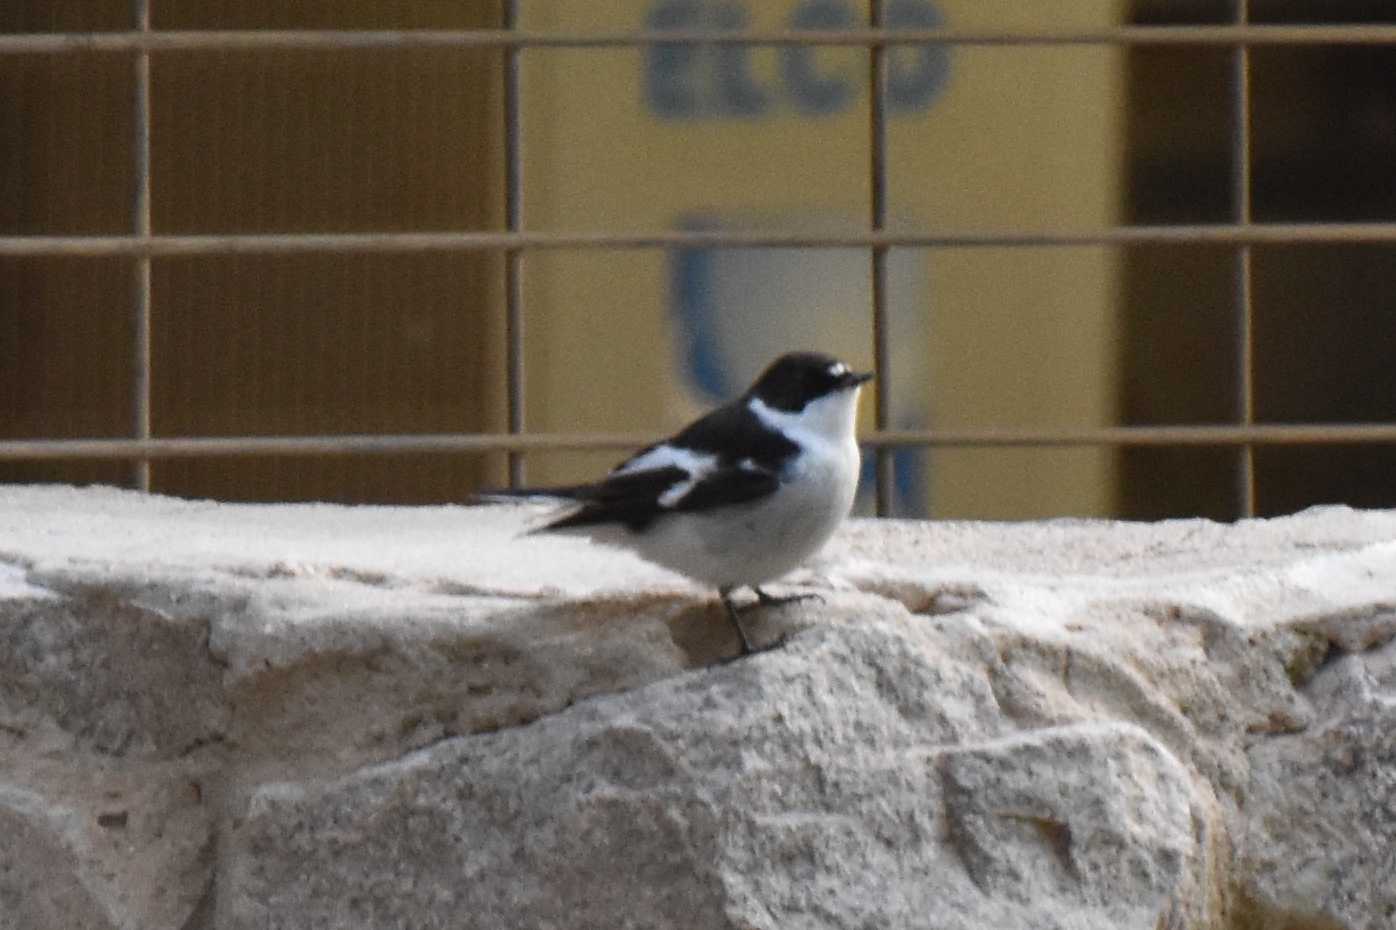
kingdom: Animalia
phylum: Chordata
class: Aves
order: Passeriformes
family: Muscicapidae
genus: Ficedula
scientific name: Ficedula semitorquata
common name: Semicollared flycatcher
